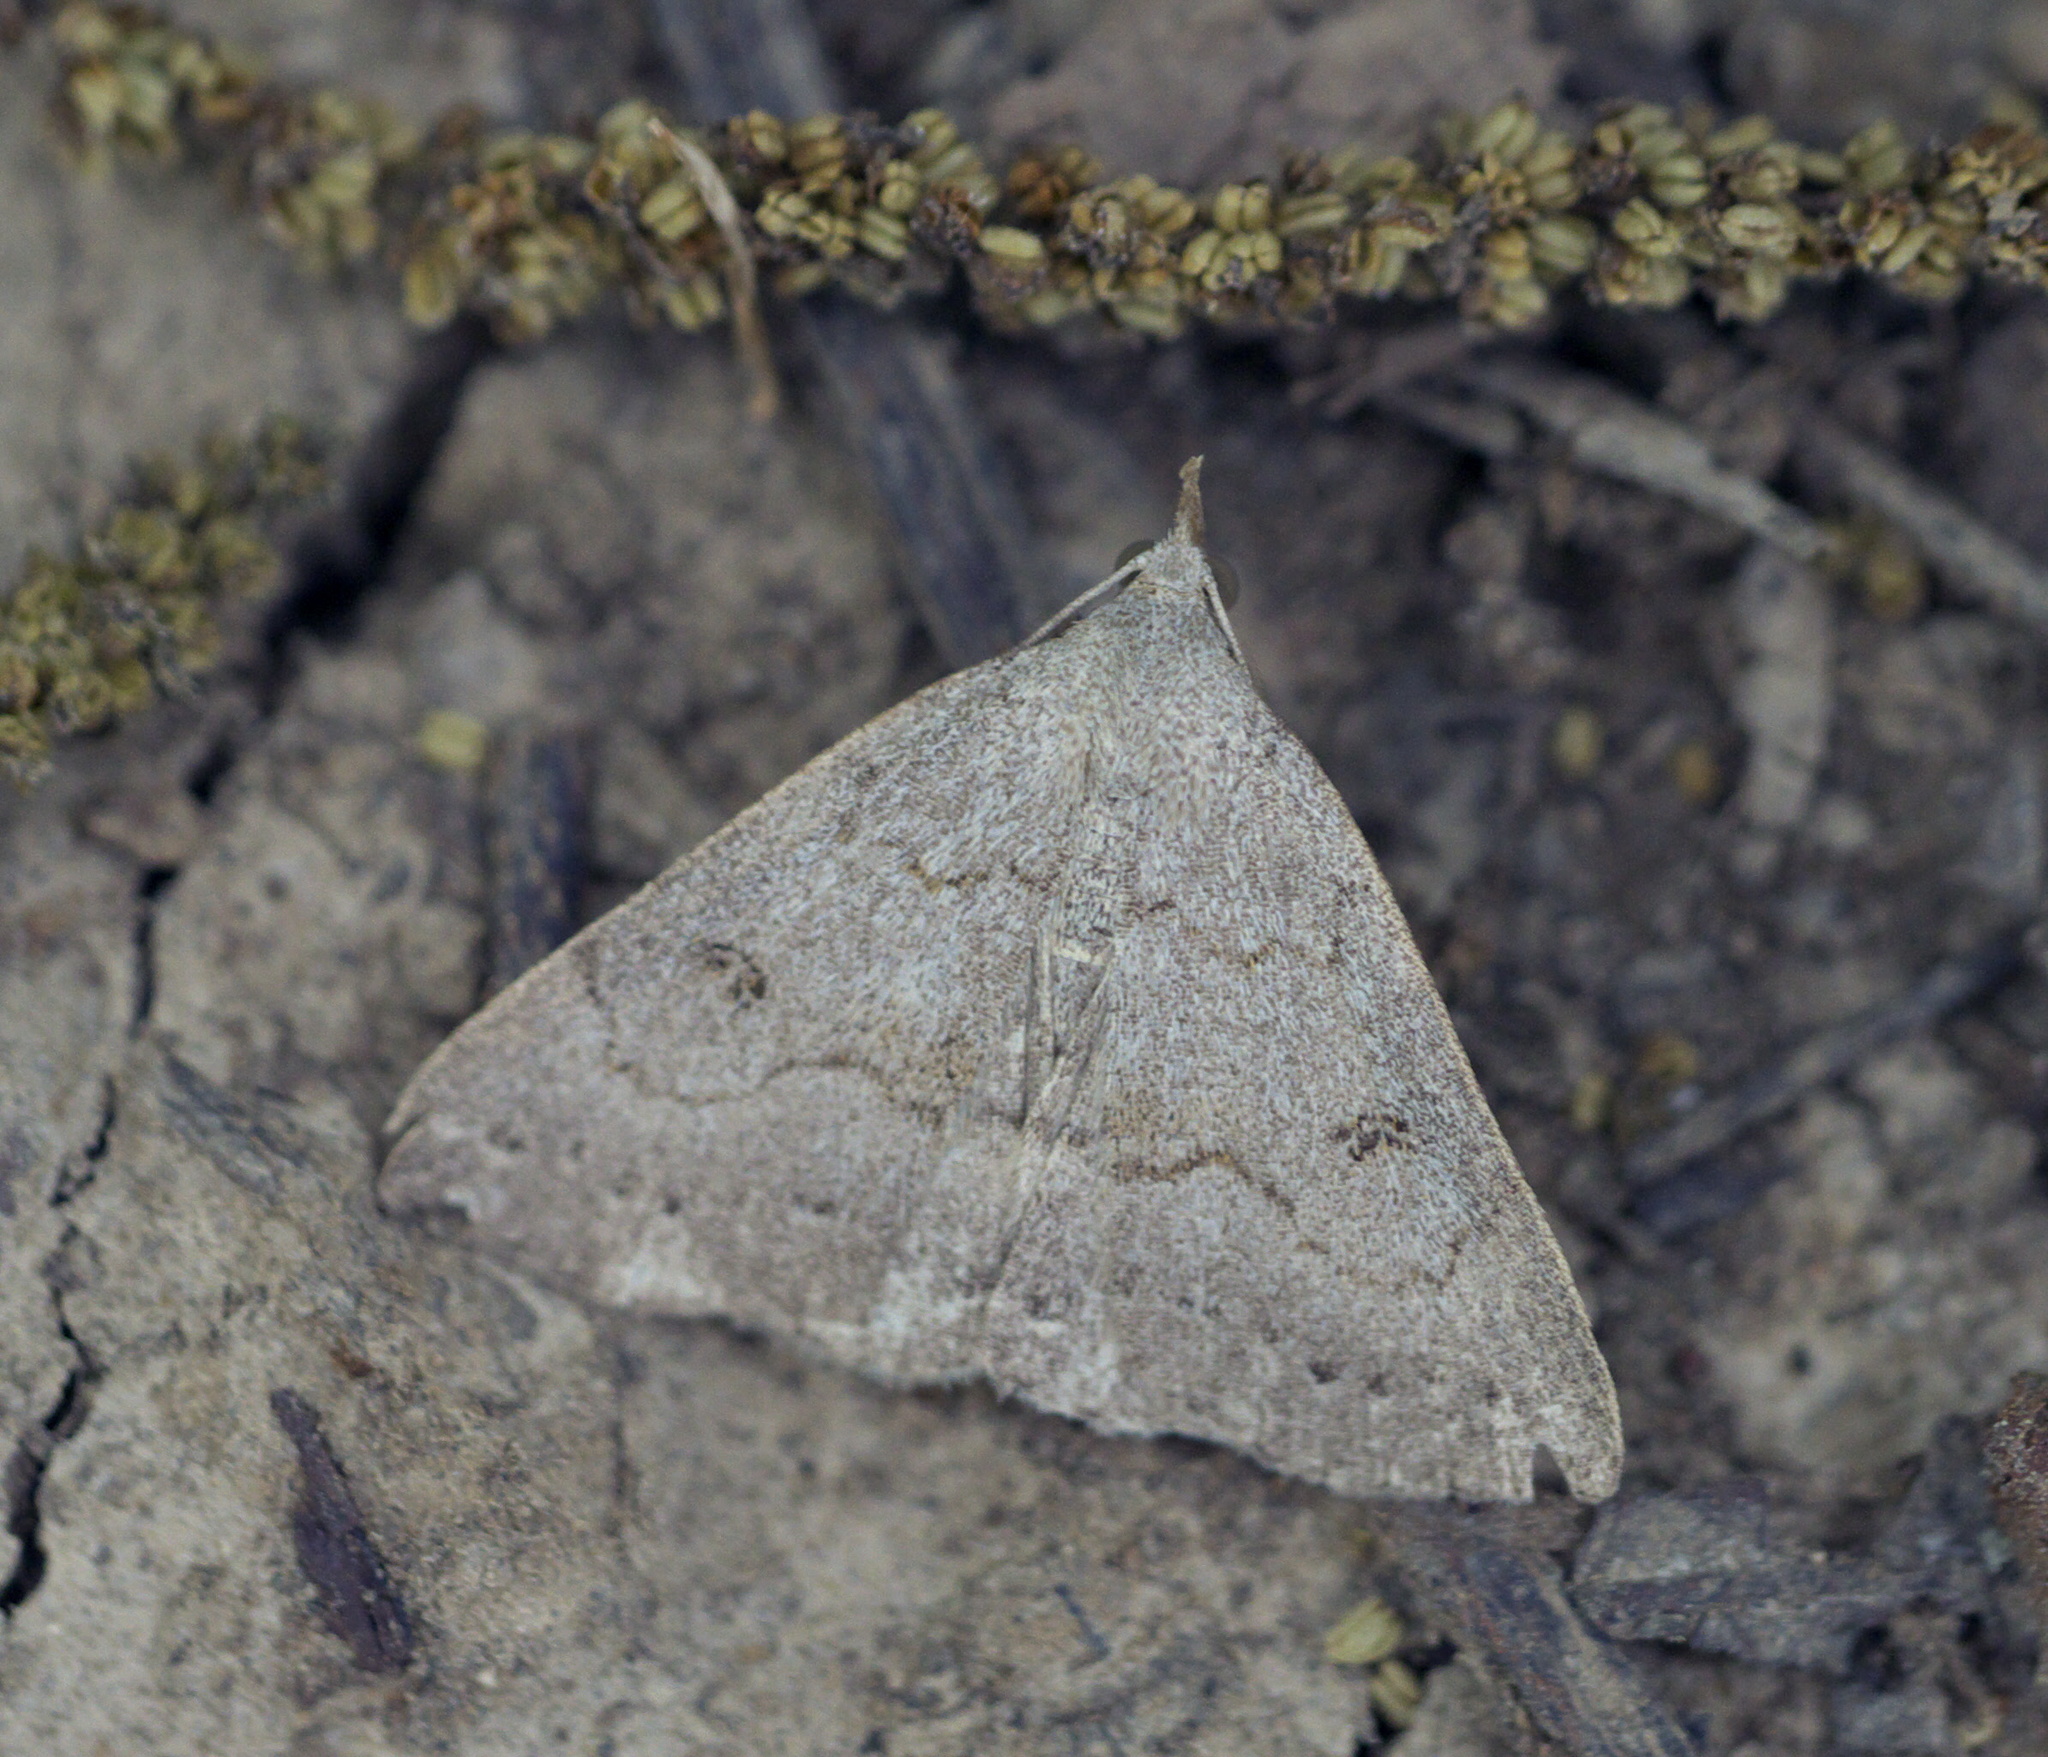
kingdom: Animalia
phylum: Arthropoda
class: Insecta
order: Lepidoptera
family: Erebidae
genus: Macrochilo
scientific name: Macrochilo morbidalis
